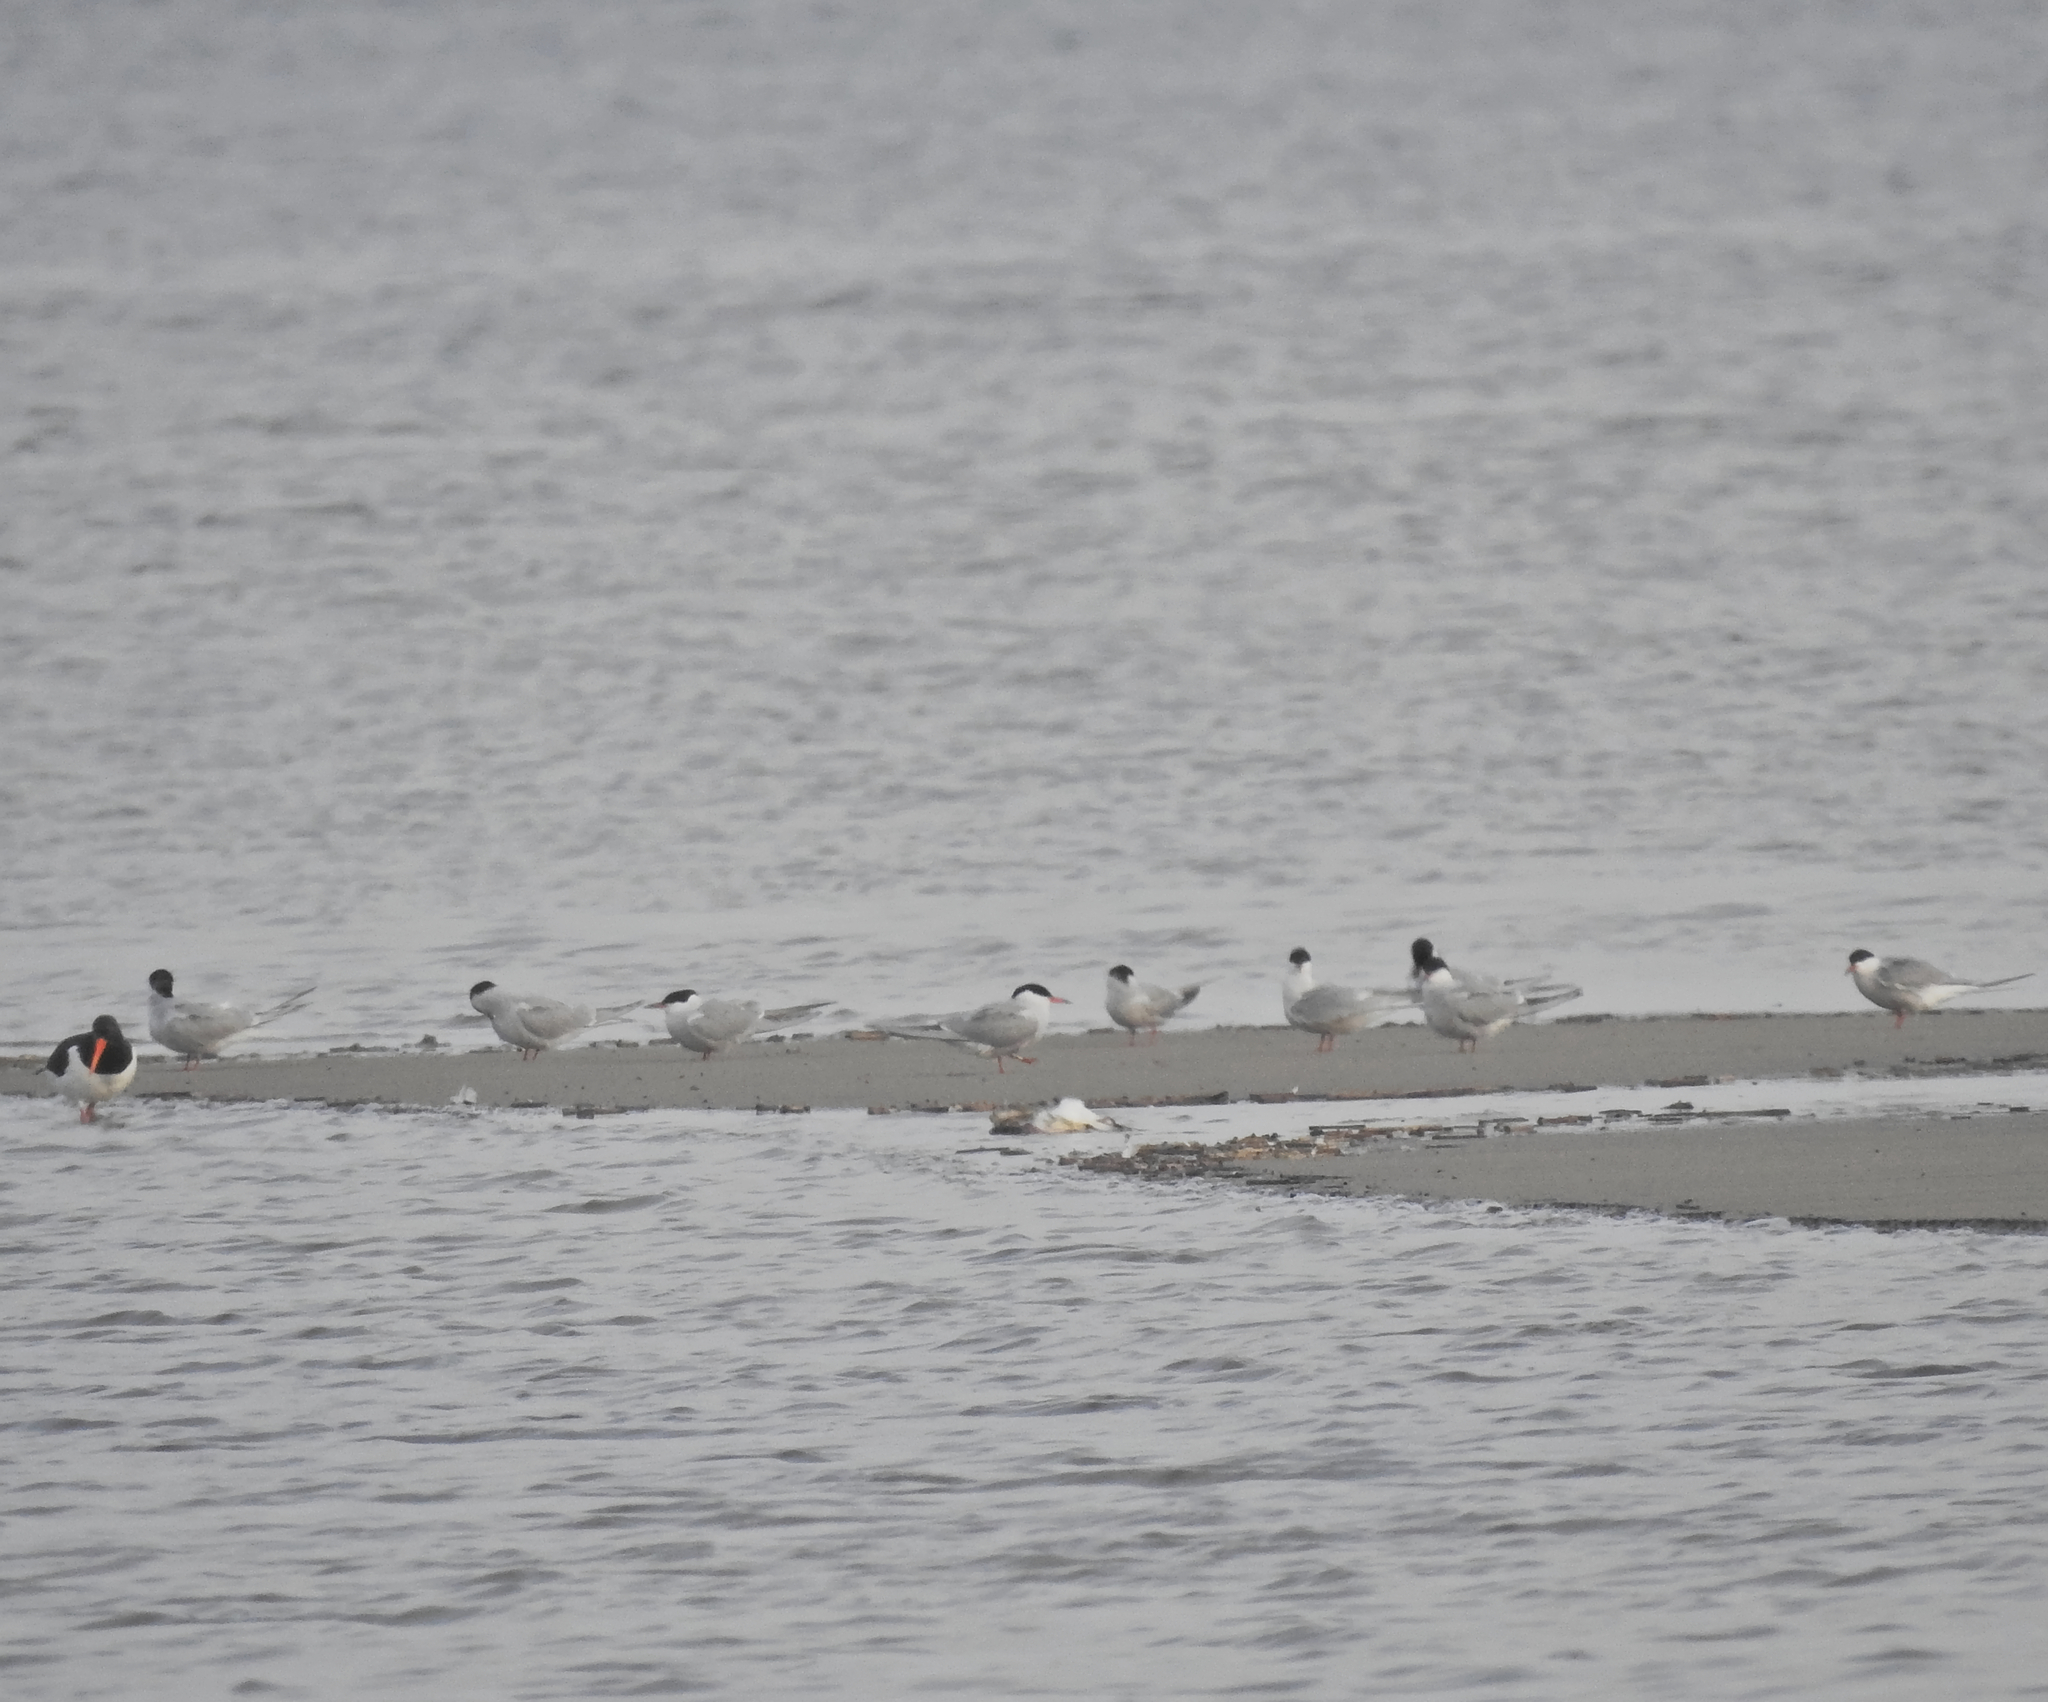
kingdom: Animalia
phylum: Chordata
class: Aves
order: Charadriiformes
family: Laridae
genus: Sterna
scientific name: Sterna hirundo
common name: Common tern
